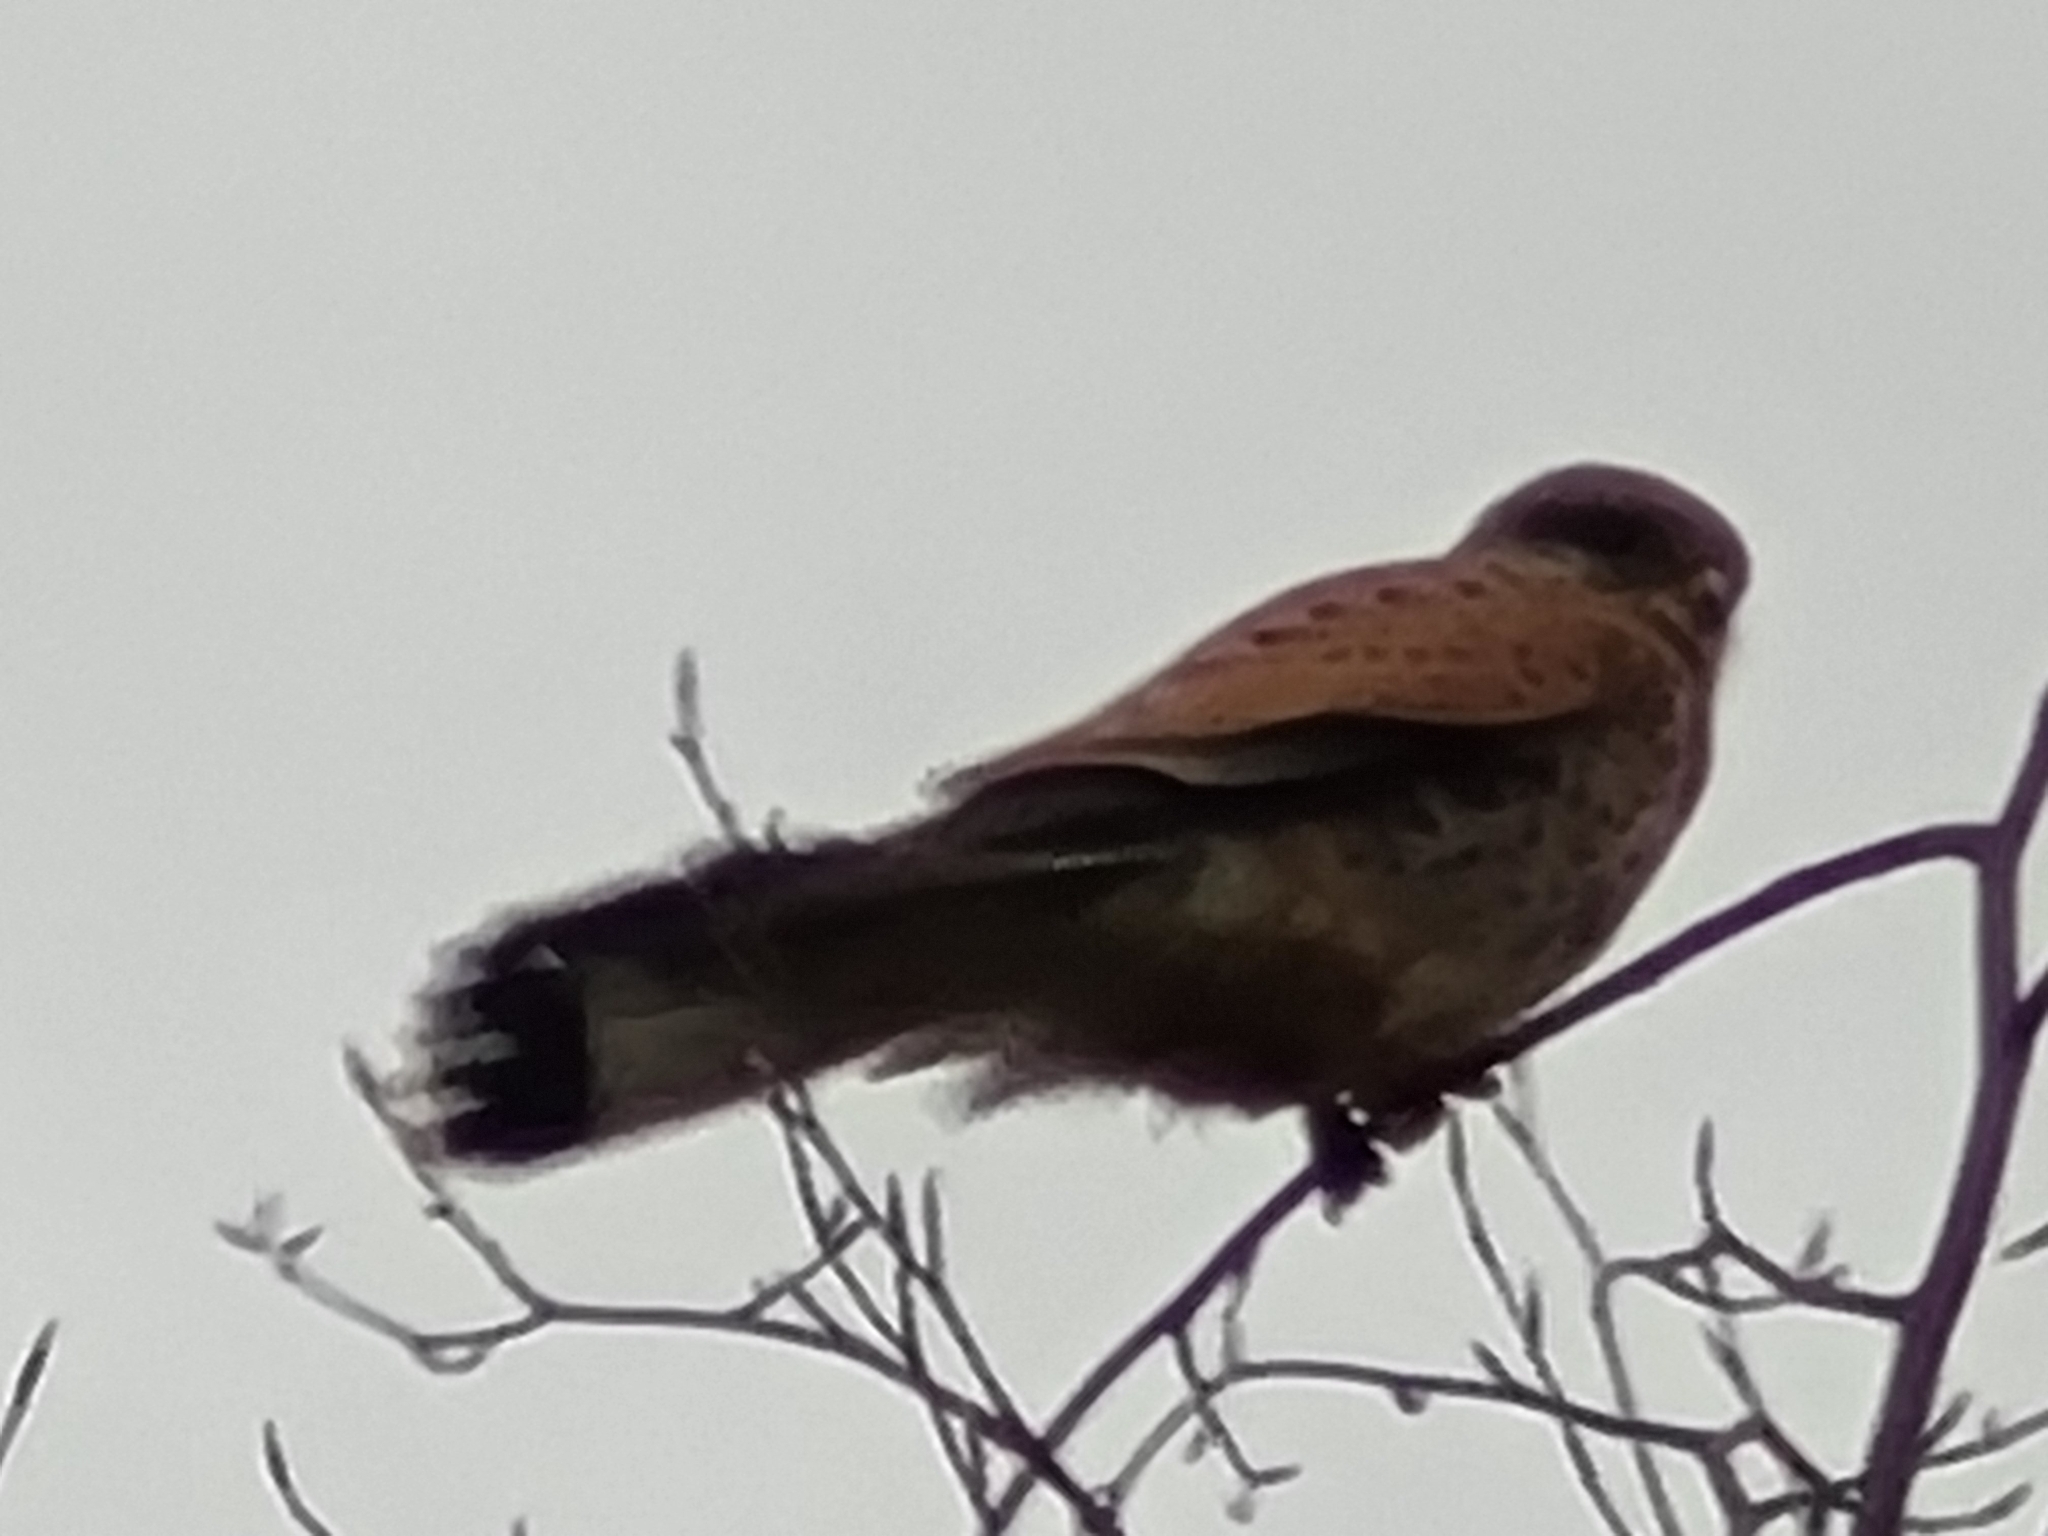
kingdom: Animalia
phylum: Chordata
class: Aves
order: Falconiformes
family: Falconidae
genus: Falco
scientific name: Falco tinnunculus
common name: Common kestrel
